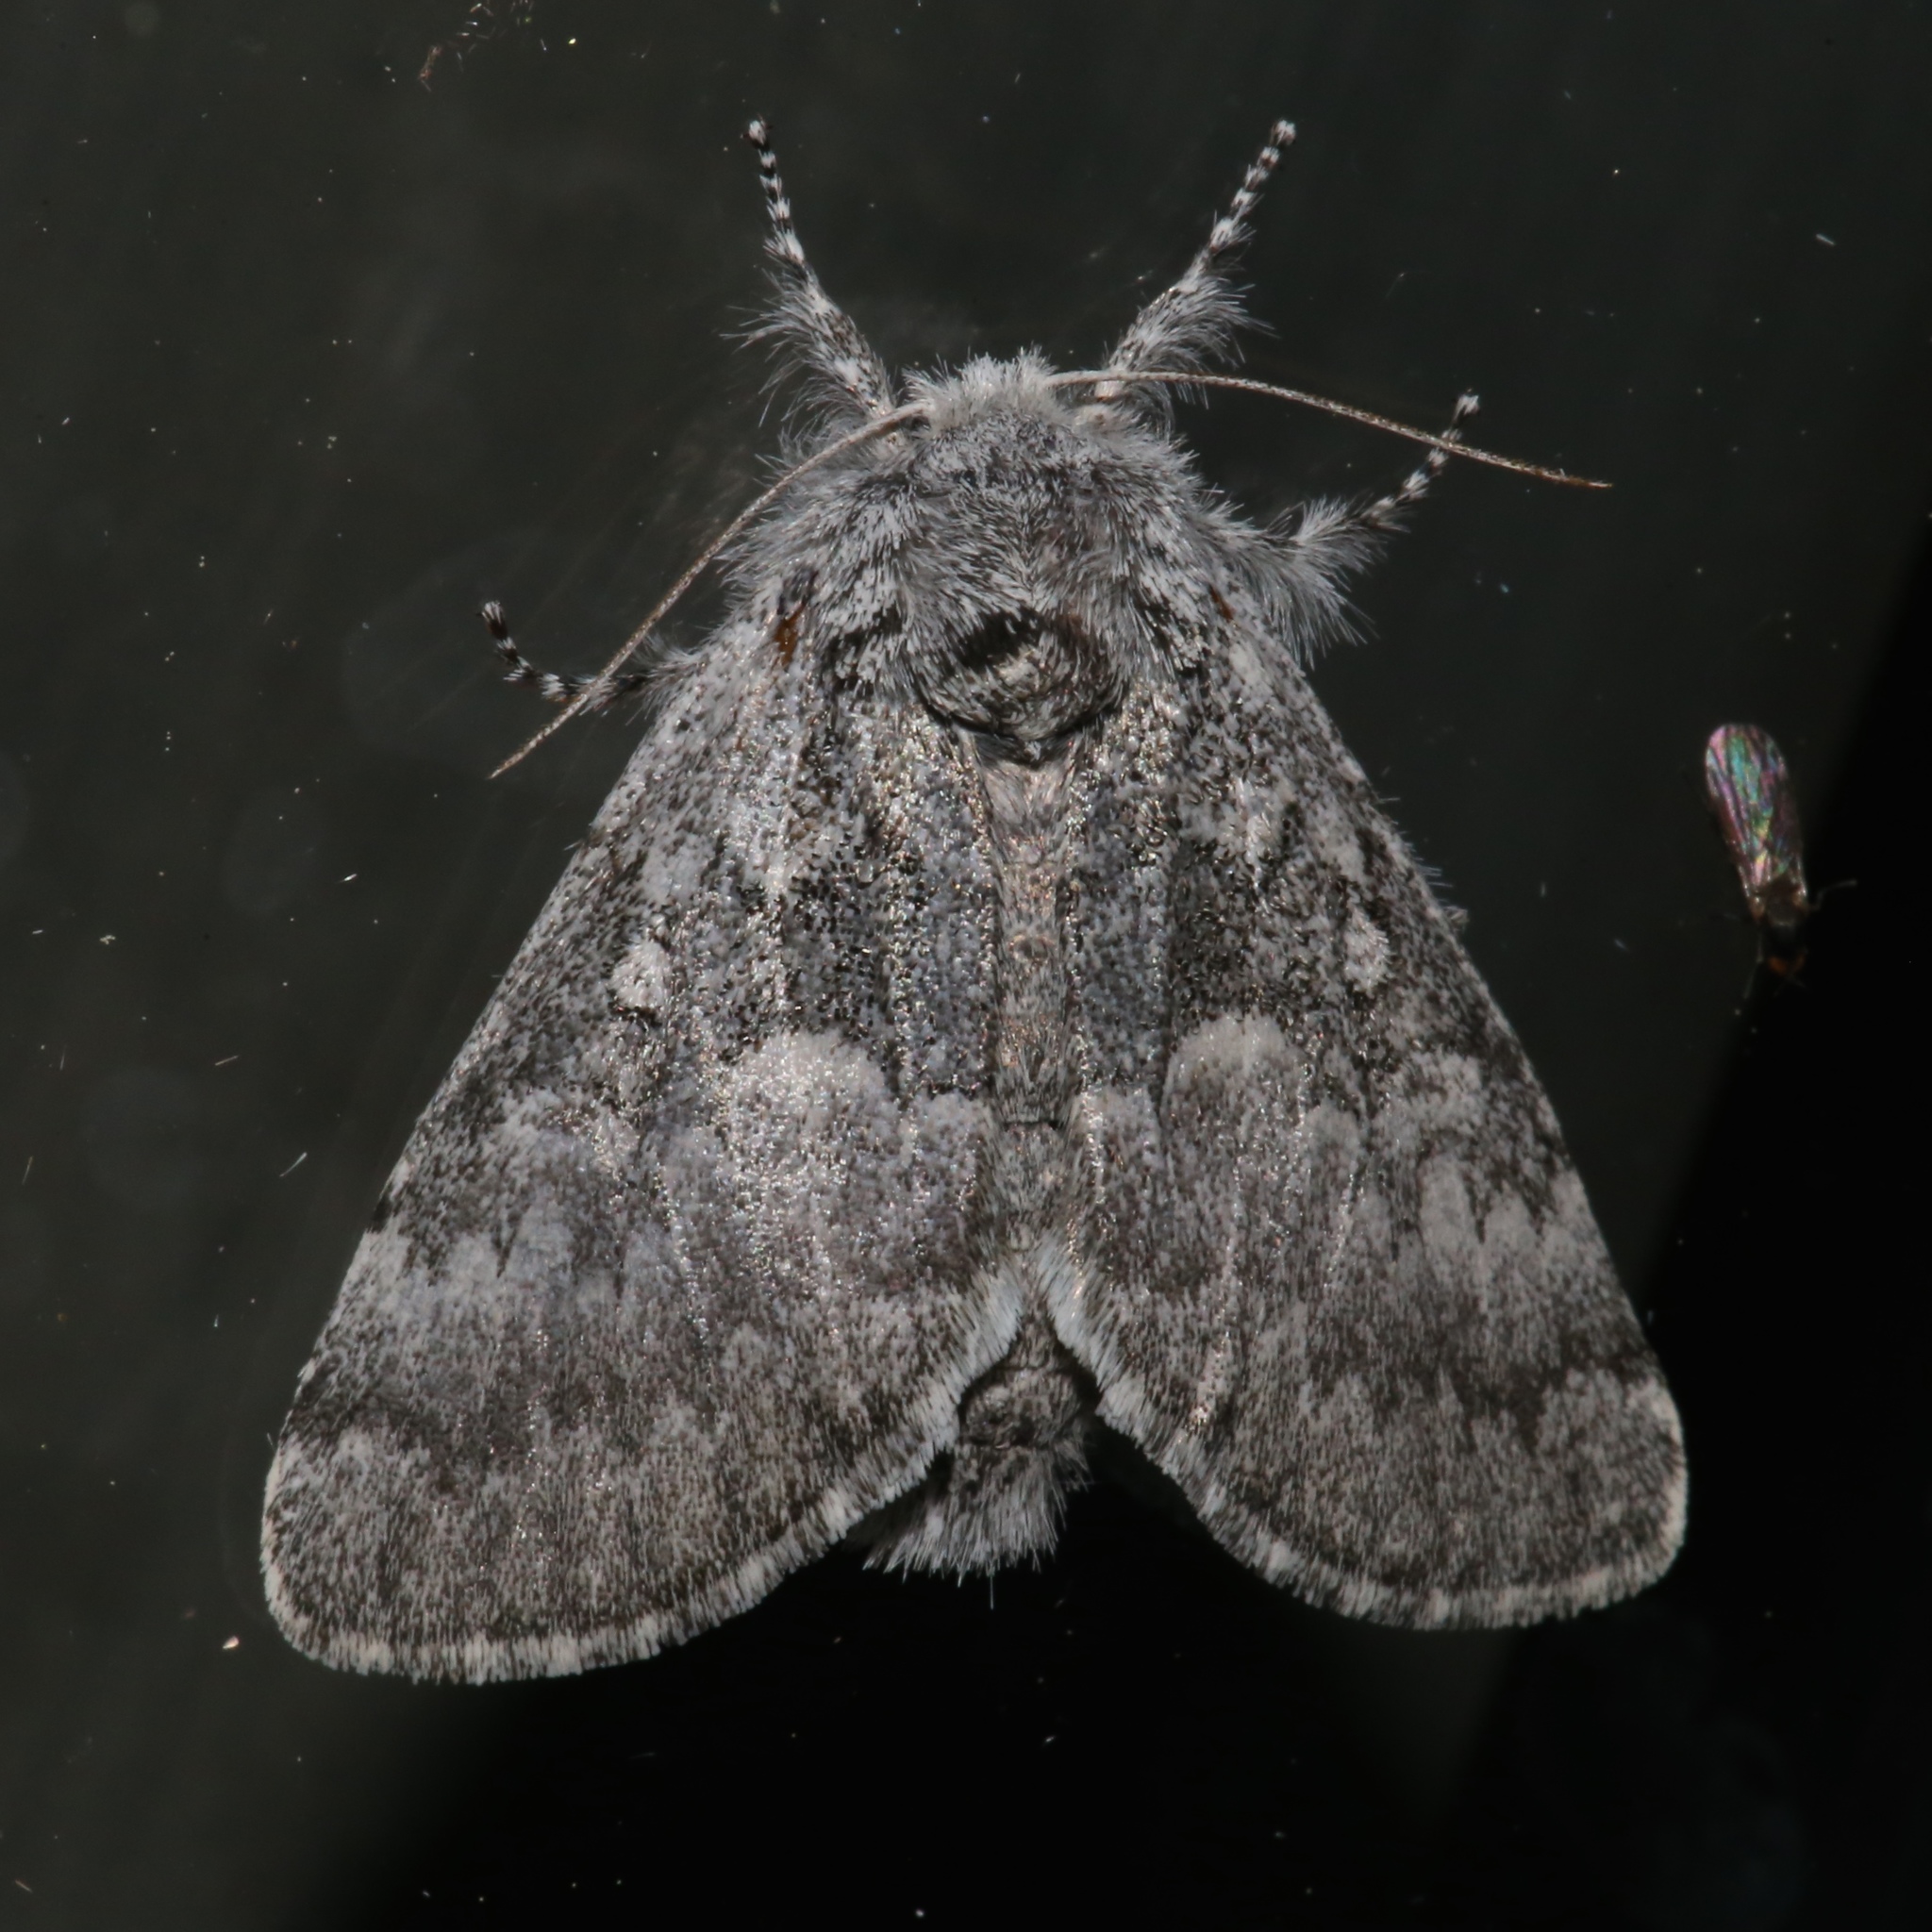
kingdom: Animalia
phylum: Arthropoda
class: Insecta
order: Lepidoptera
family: Noctuidae
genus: Colocasia
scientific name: Colocasia propinquilinea
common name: Close-banded demas
